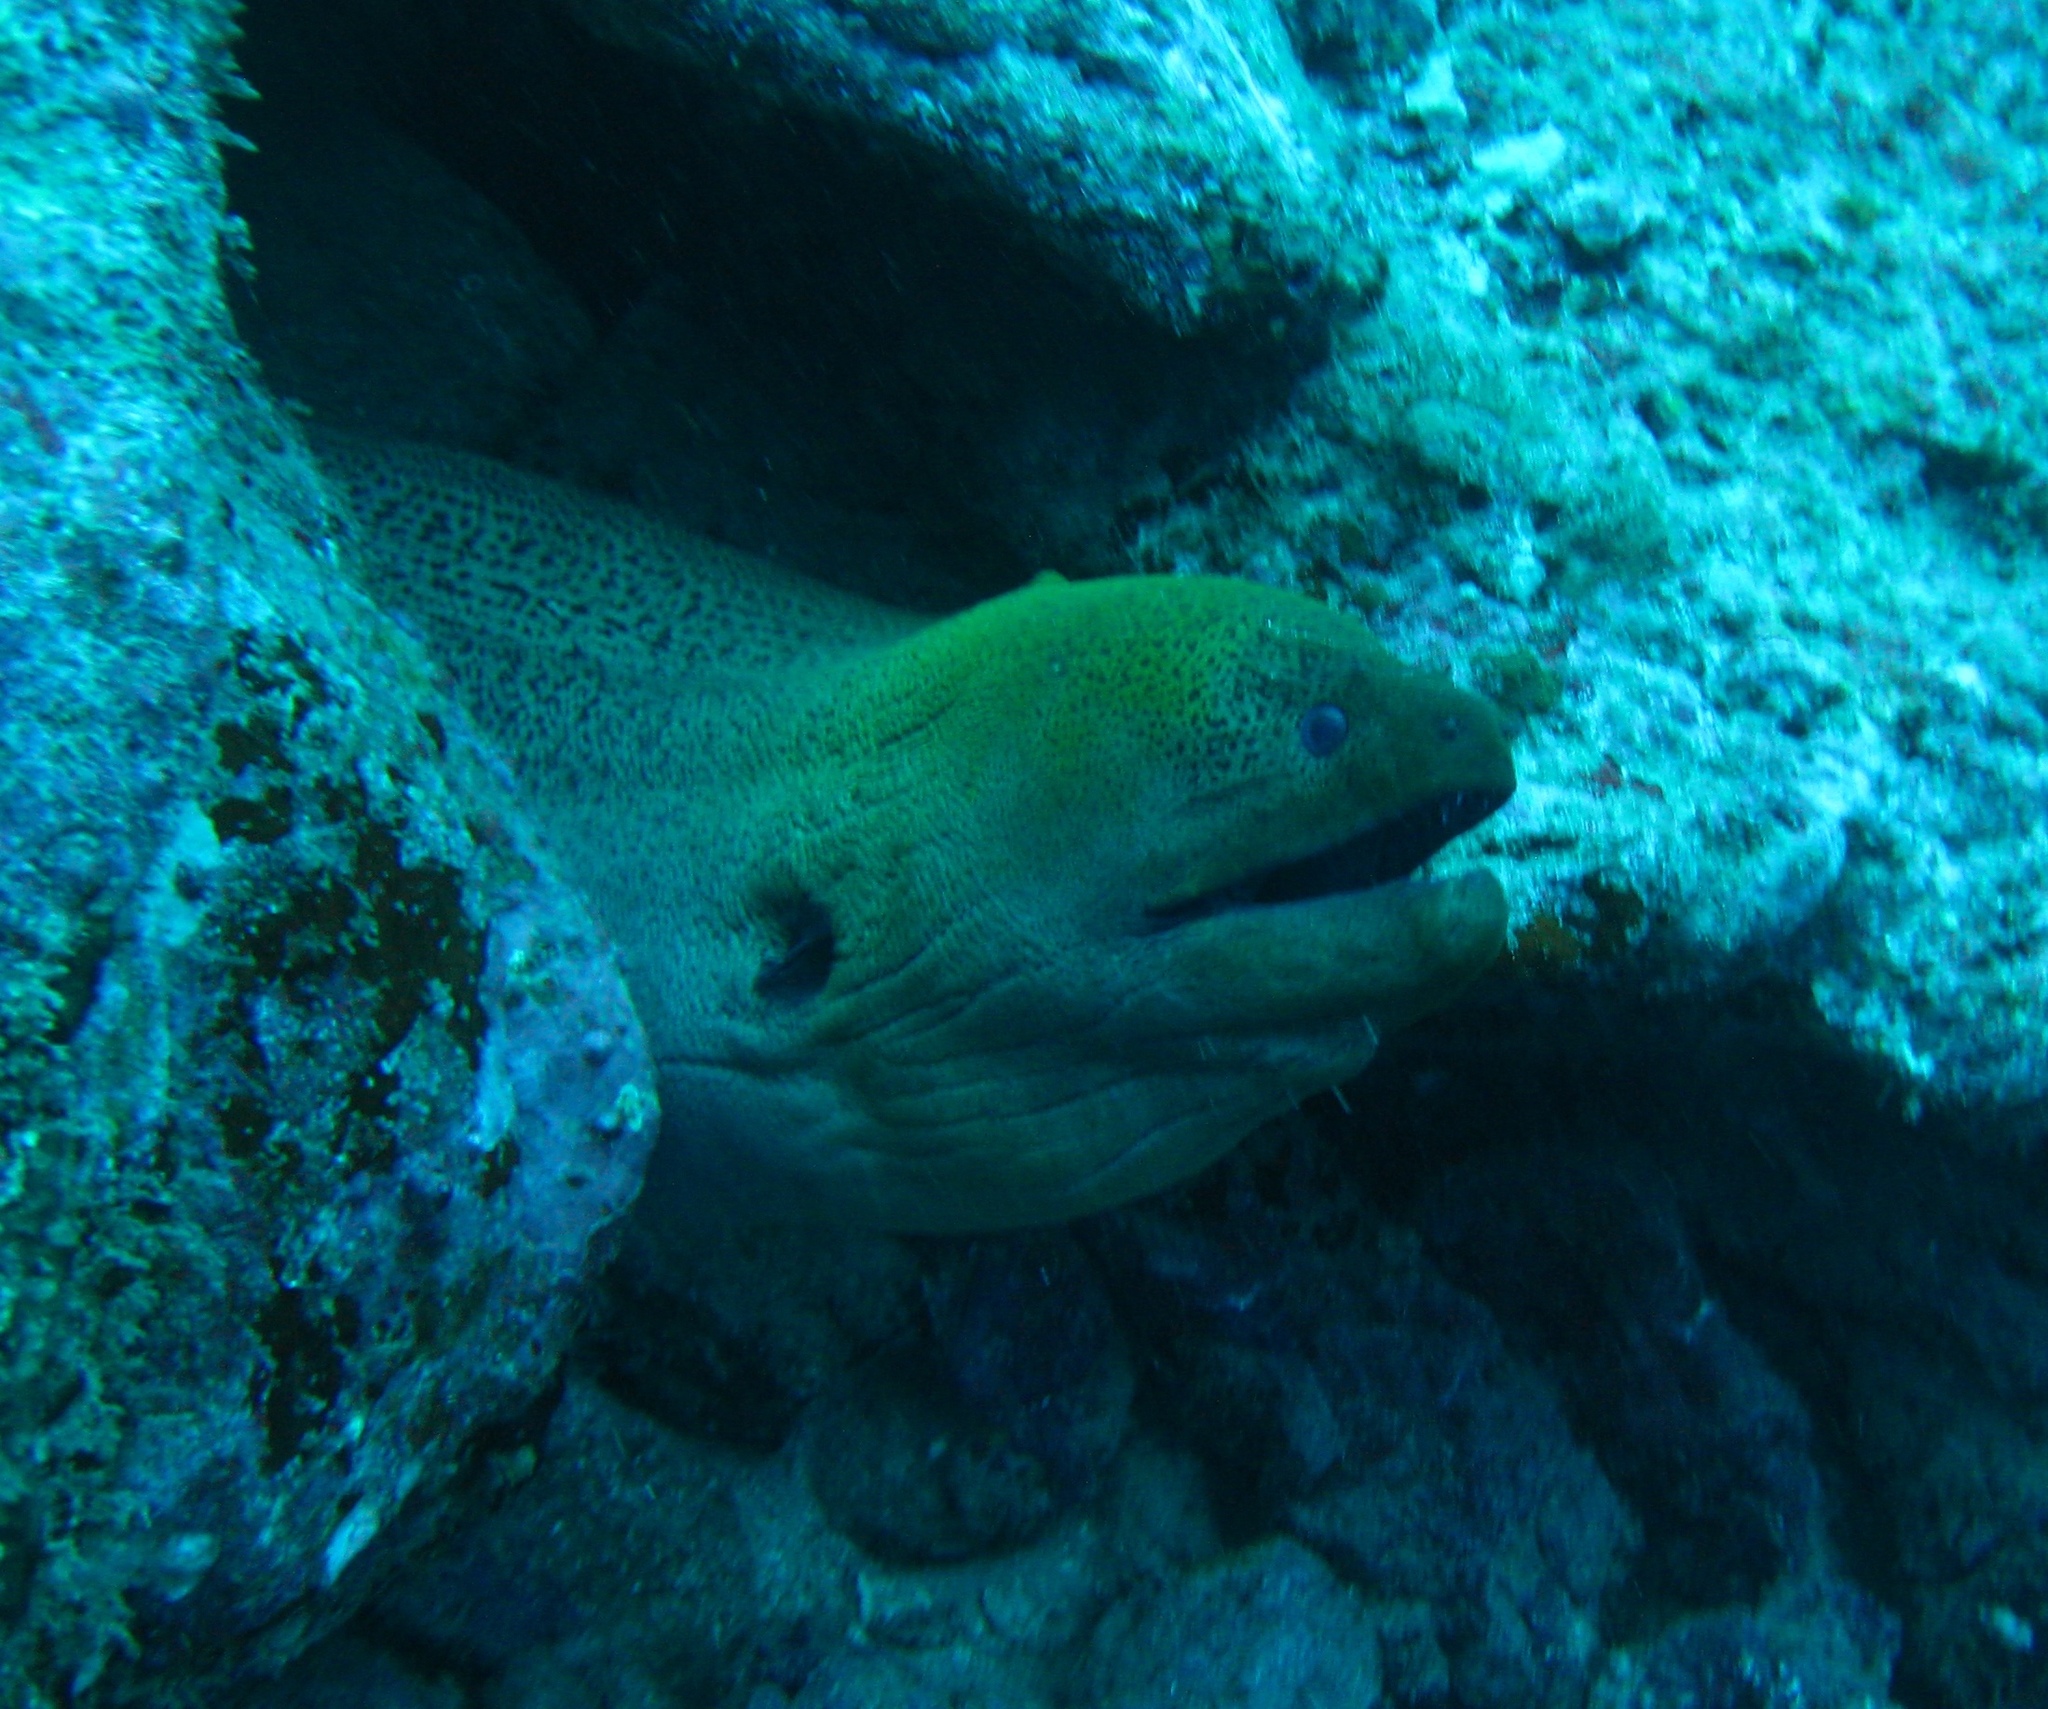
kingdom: Animalia
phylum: Chordata
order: Anguilliformes
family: Muraenidae
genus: Gymnothorax
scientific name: Gymnothorax javanicus
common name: Giant moray
